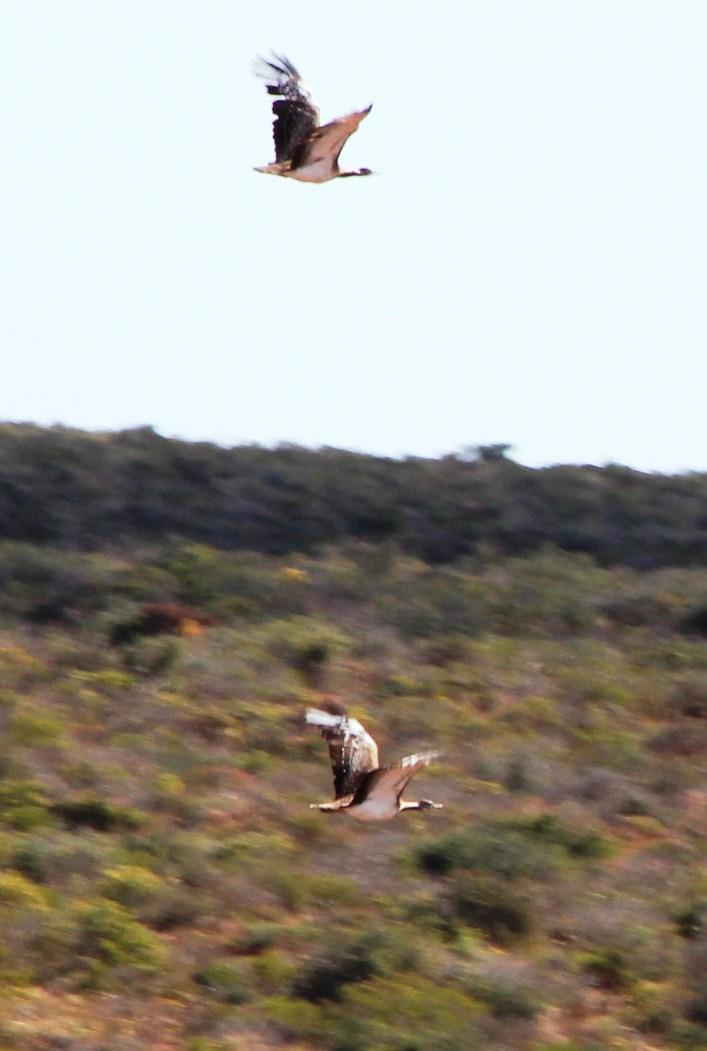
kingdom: Animalia
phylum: Chordata
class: Aves
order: Otidiformes
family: Otididae
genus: Neotis
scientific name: Neotis ludwigii
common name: Ludwig's bustard
